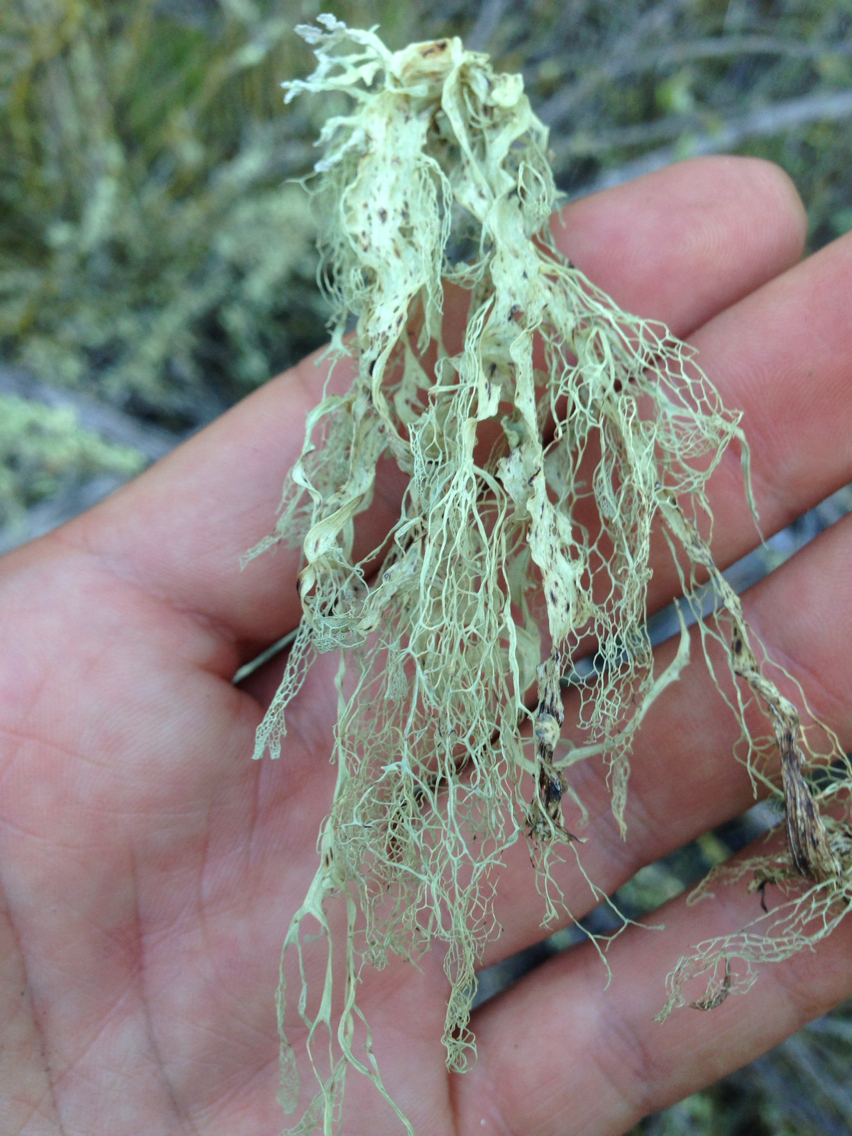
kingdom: Fungi
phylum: Ascomycota
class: Lecanoromycetes
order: Lecanorales
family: Ramalinaceae
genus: Ramalina
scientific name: Ramalina menziesii
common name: Lace lichen
